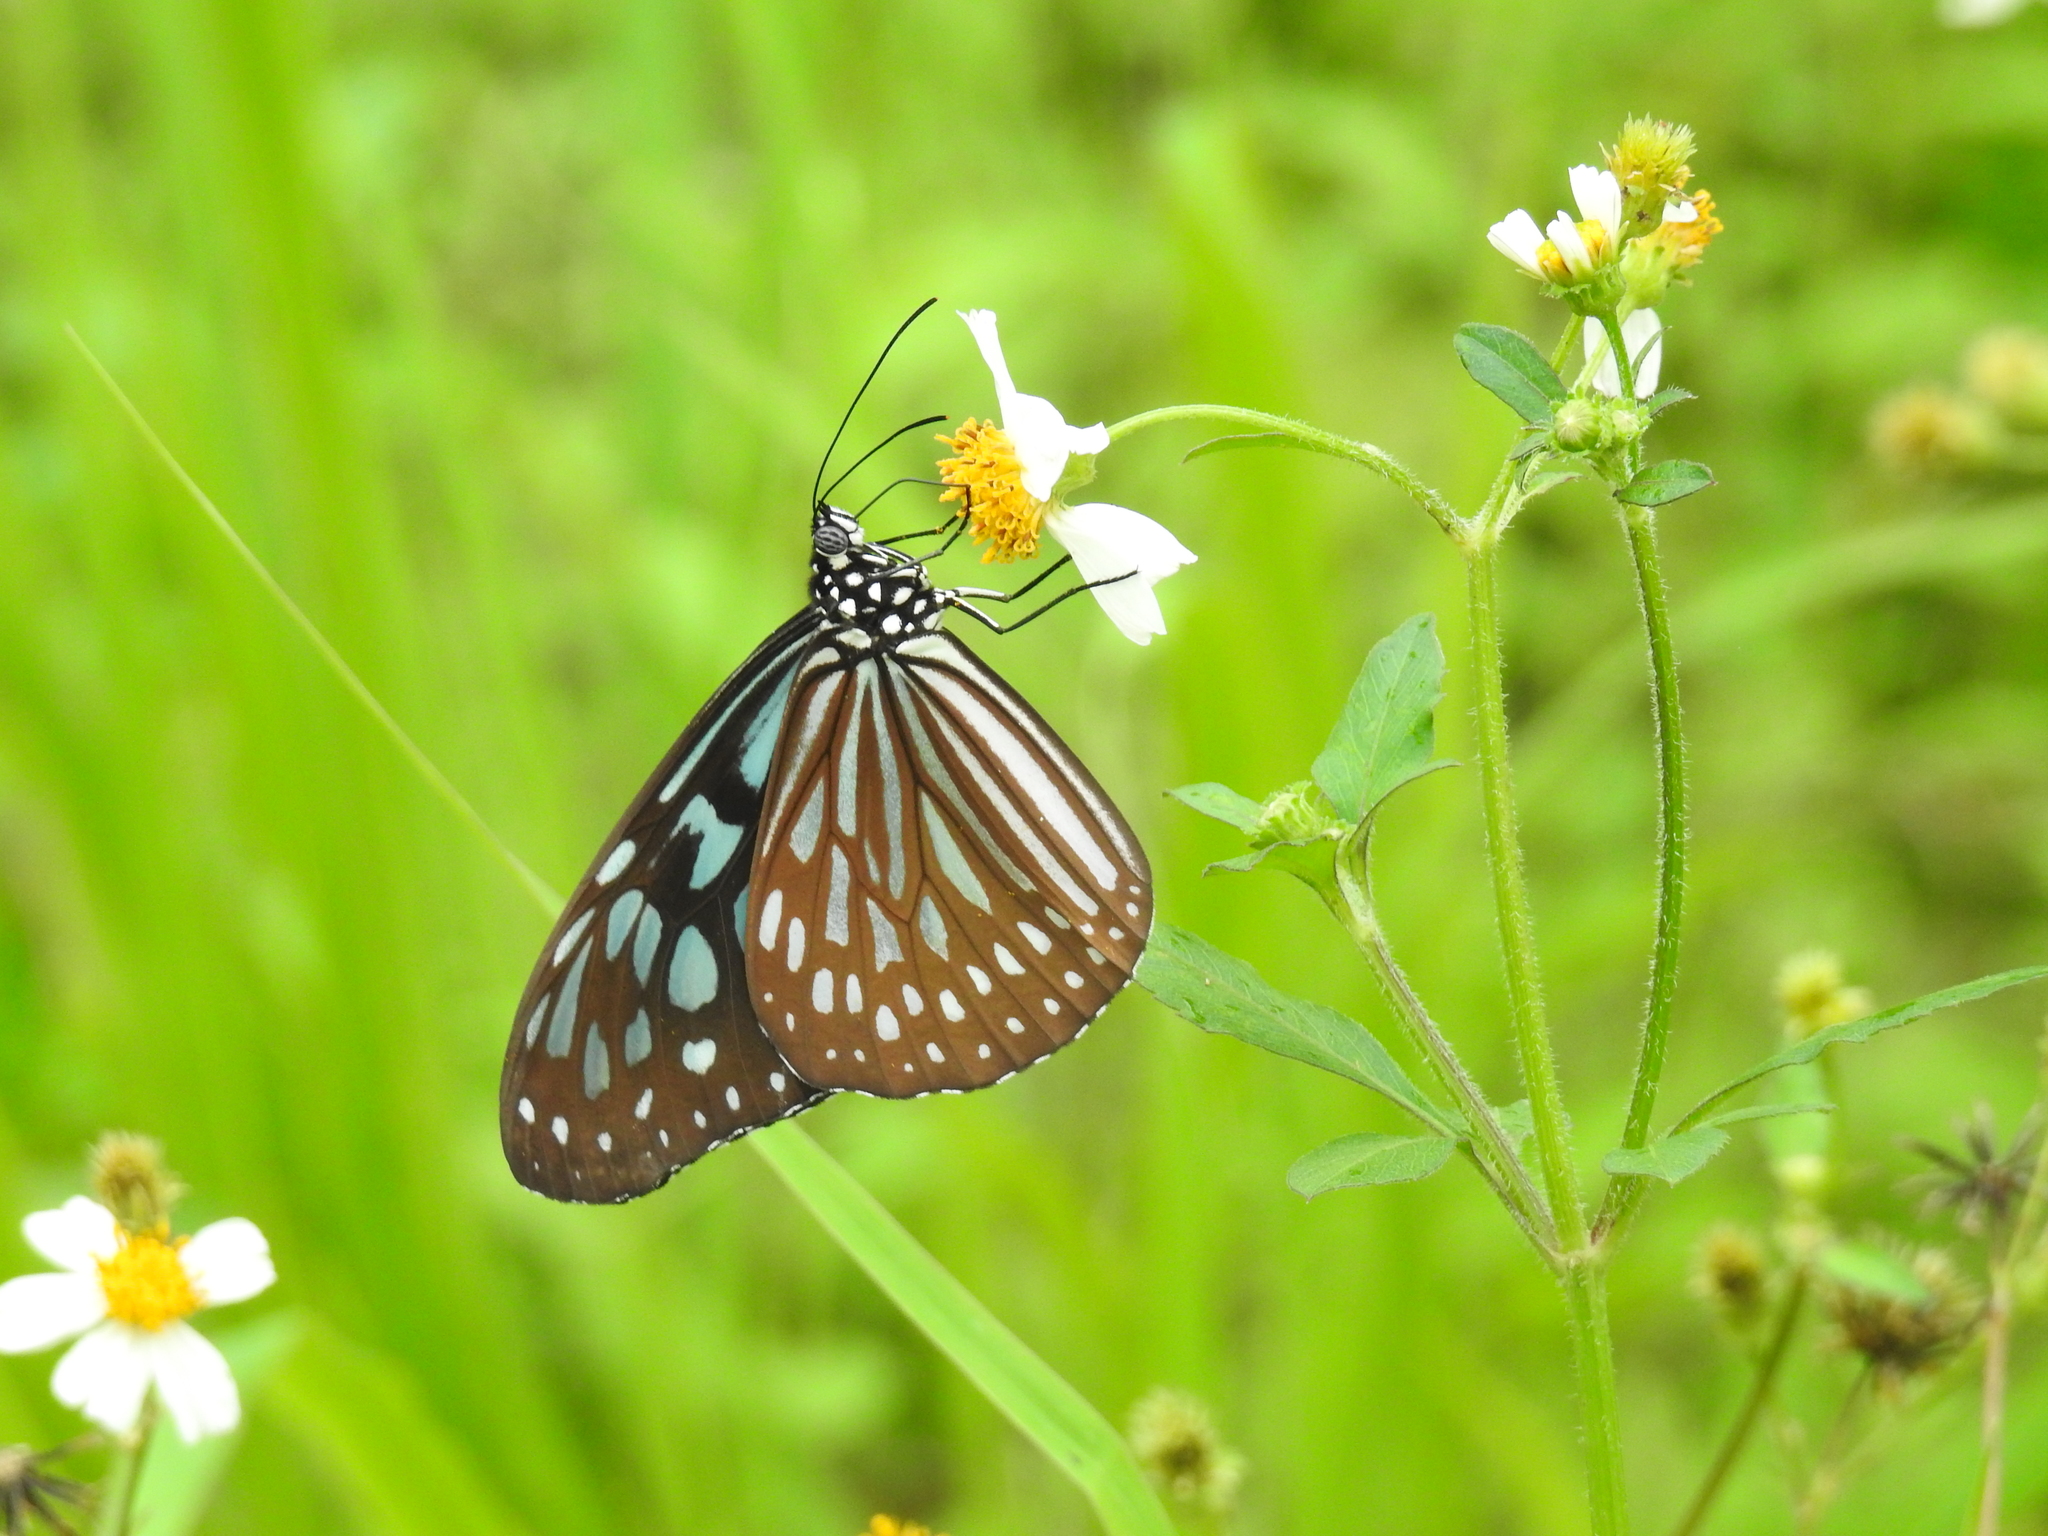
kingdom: Animalia
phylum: Arthropoda
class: Insecta
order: Lepidoptera
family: Nymphalidae
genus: Ideopsis
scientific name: Ideopsis similis
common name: Ceylon blue glassy tiger
